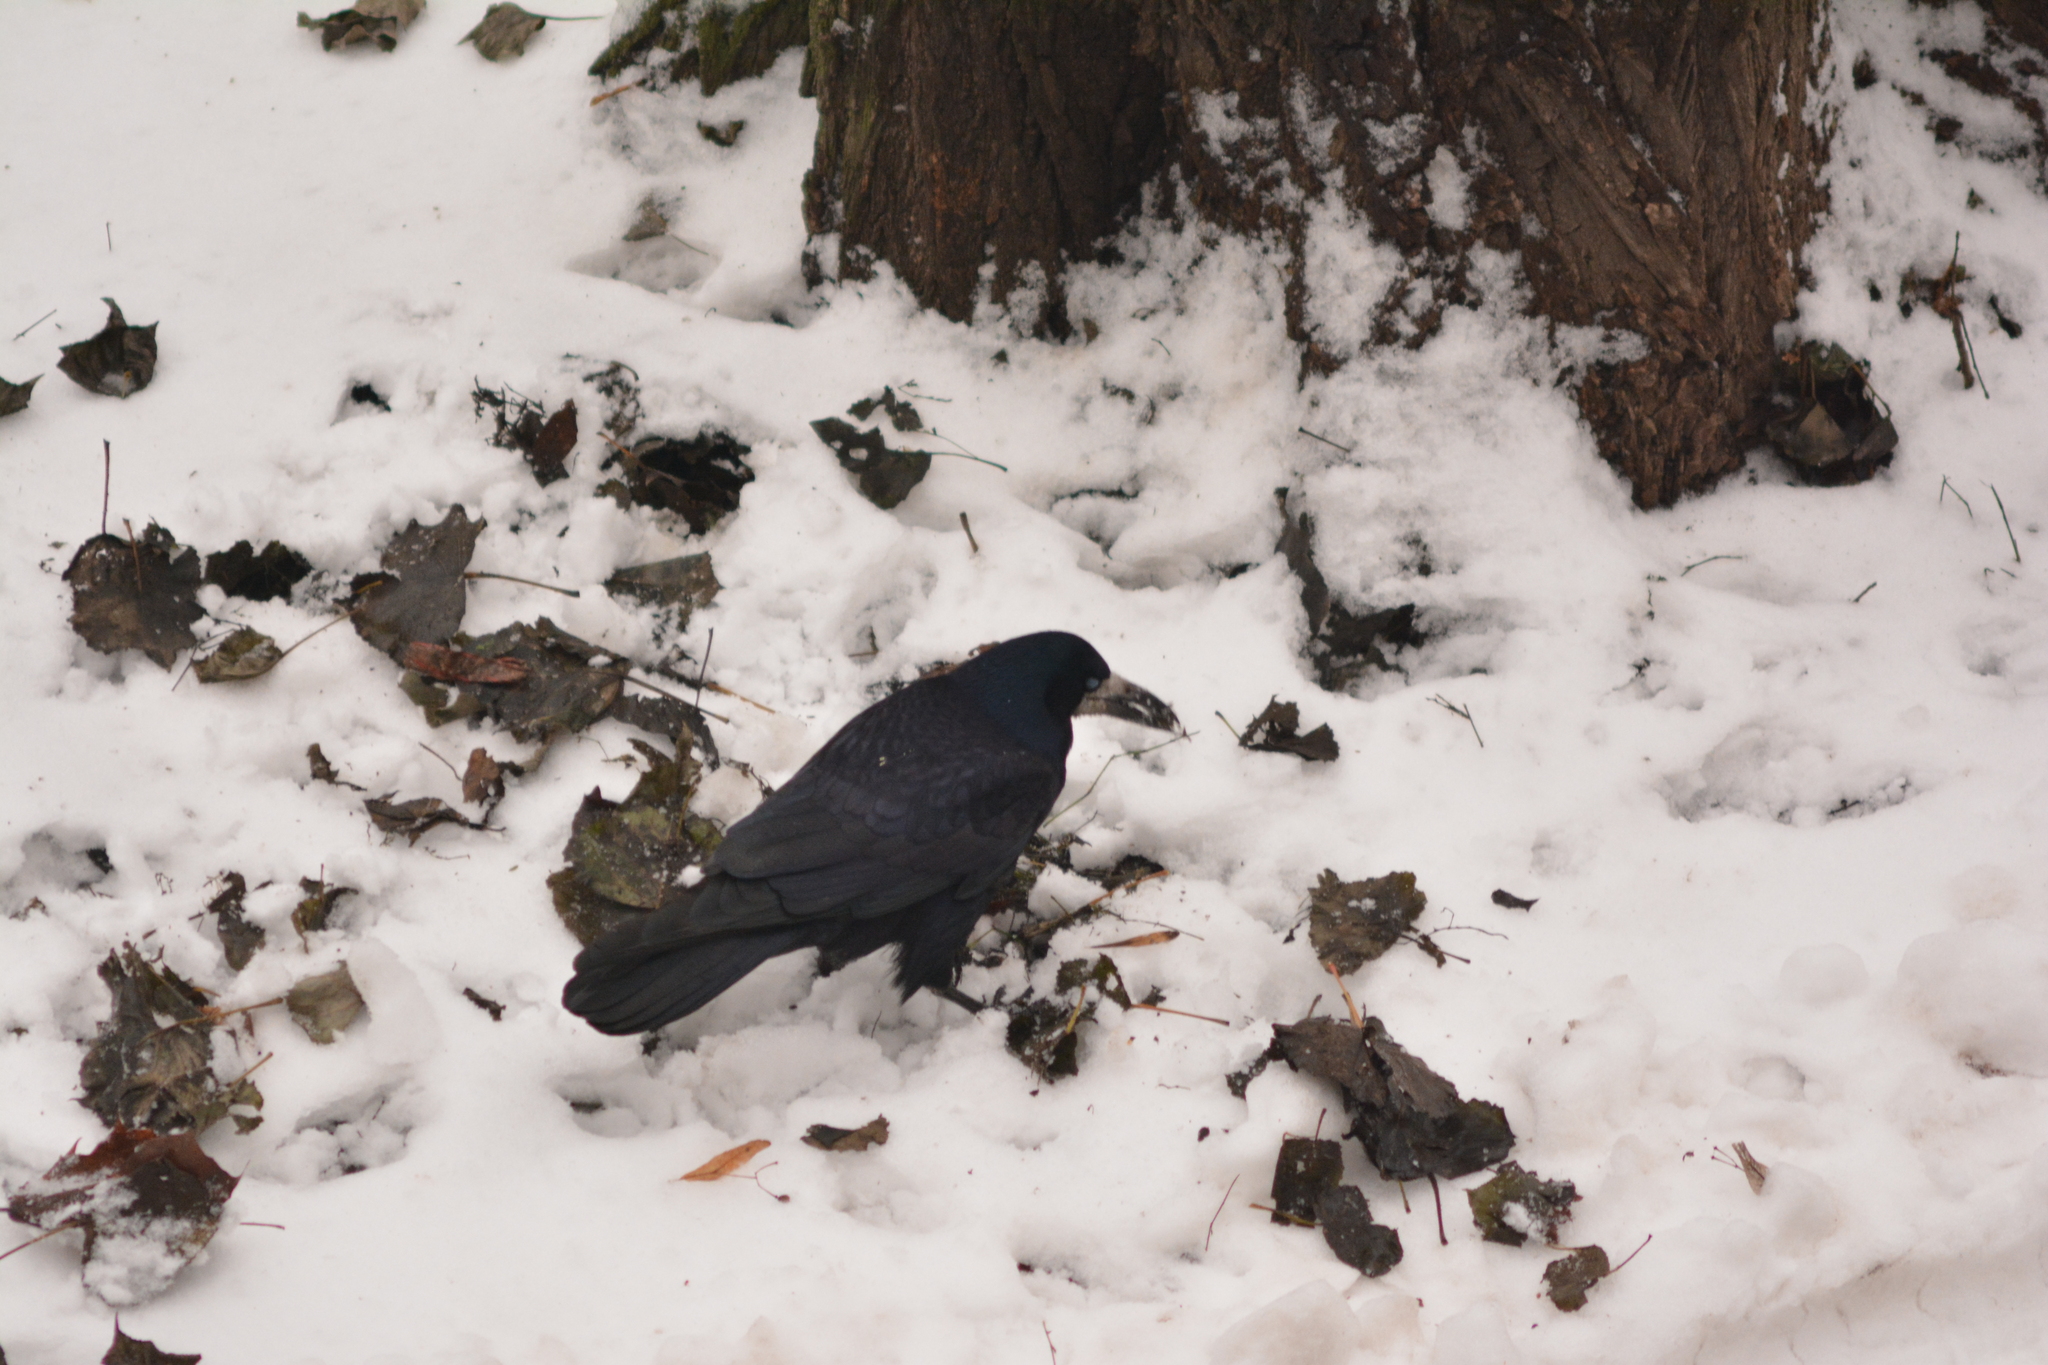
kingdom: Animalia
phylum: Chordata
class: Aves
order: Passeriformes
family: Corvidae
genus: Corvus
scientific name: Corvus frugilegus
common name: Rook
